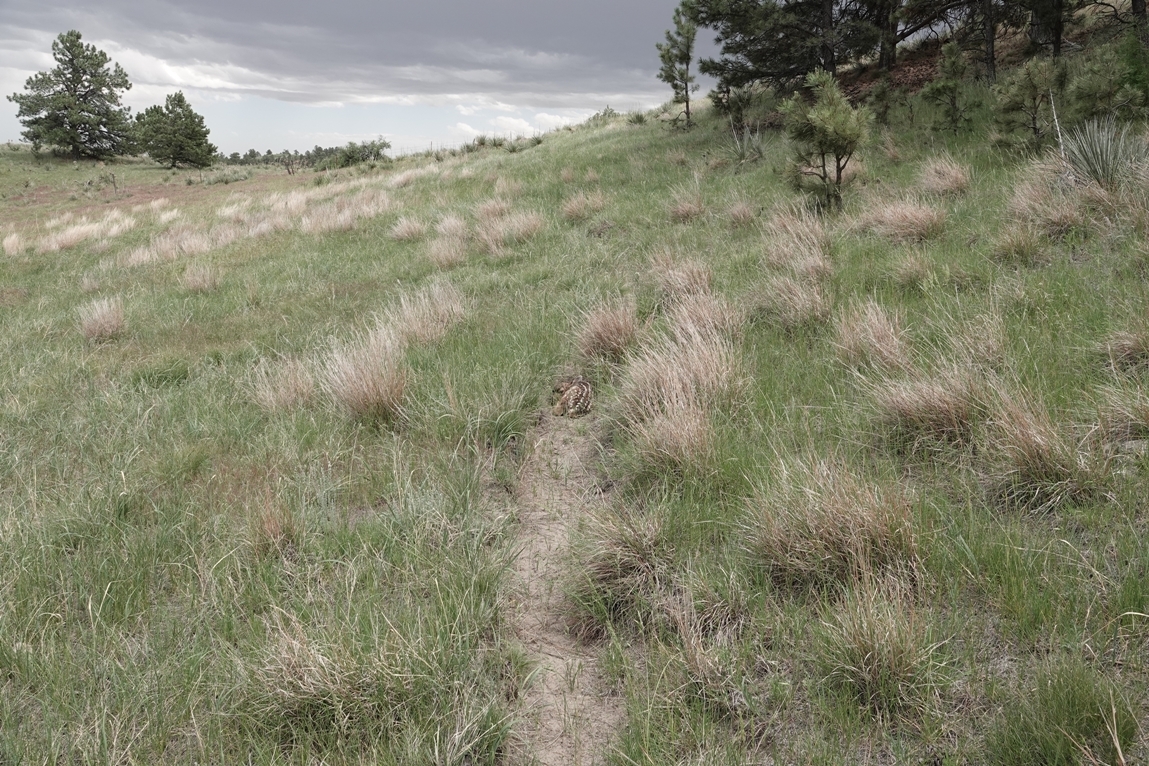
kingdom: Animalia
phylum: Chordata
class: Mammalia
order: Artiodactyla
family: Cervidae
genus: Odocoileus
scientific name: Odocoileus hemionus
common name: Mule deer
